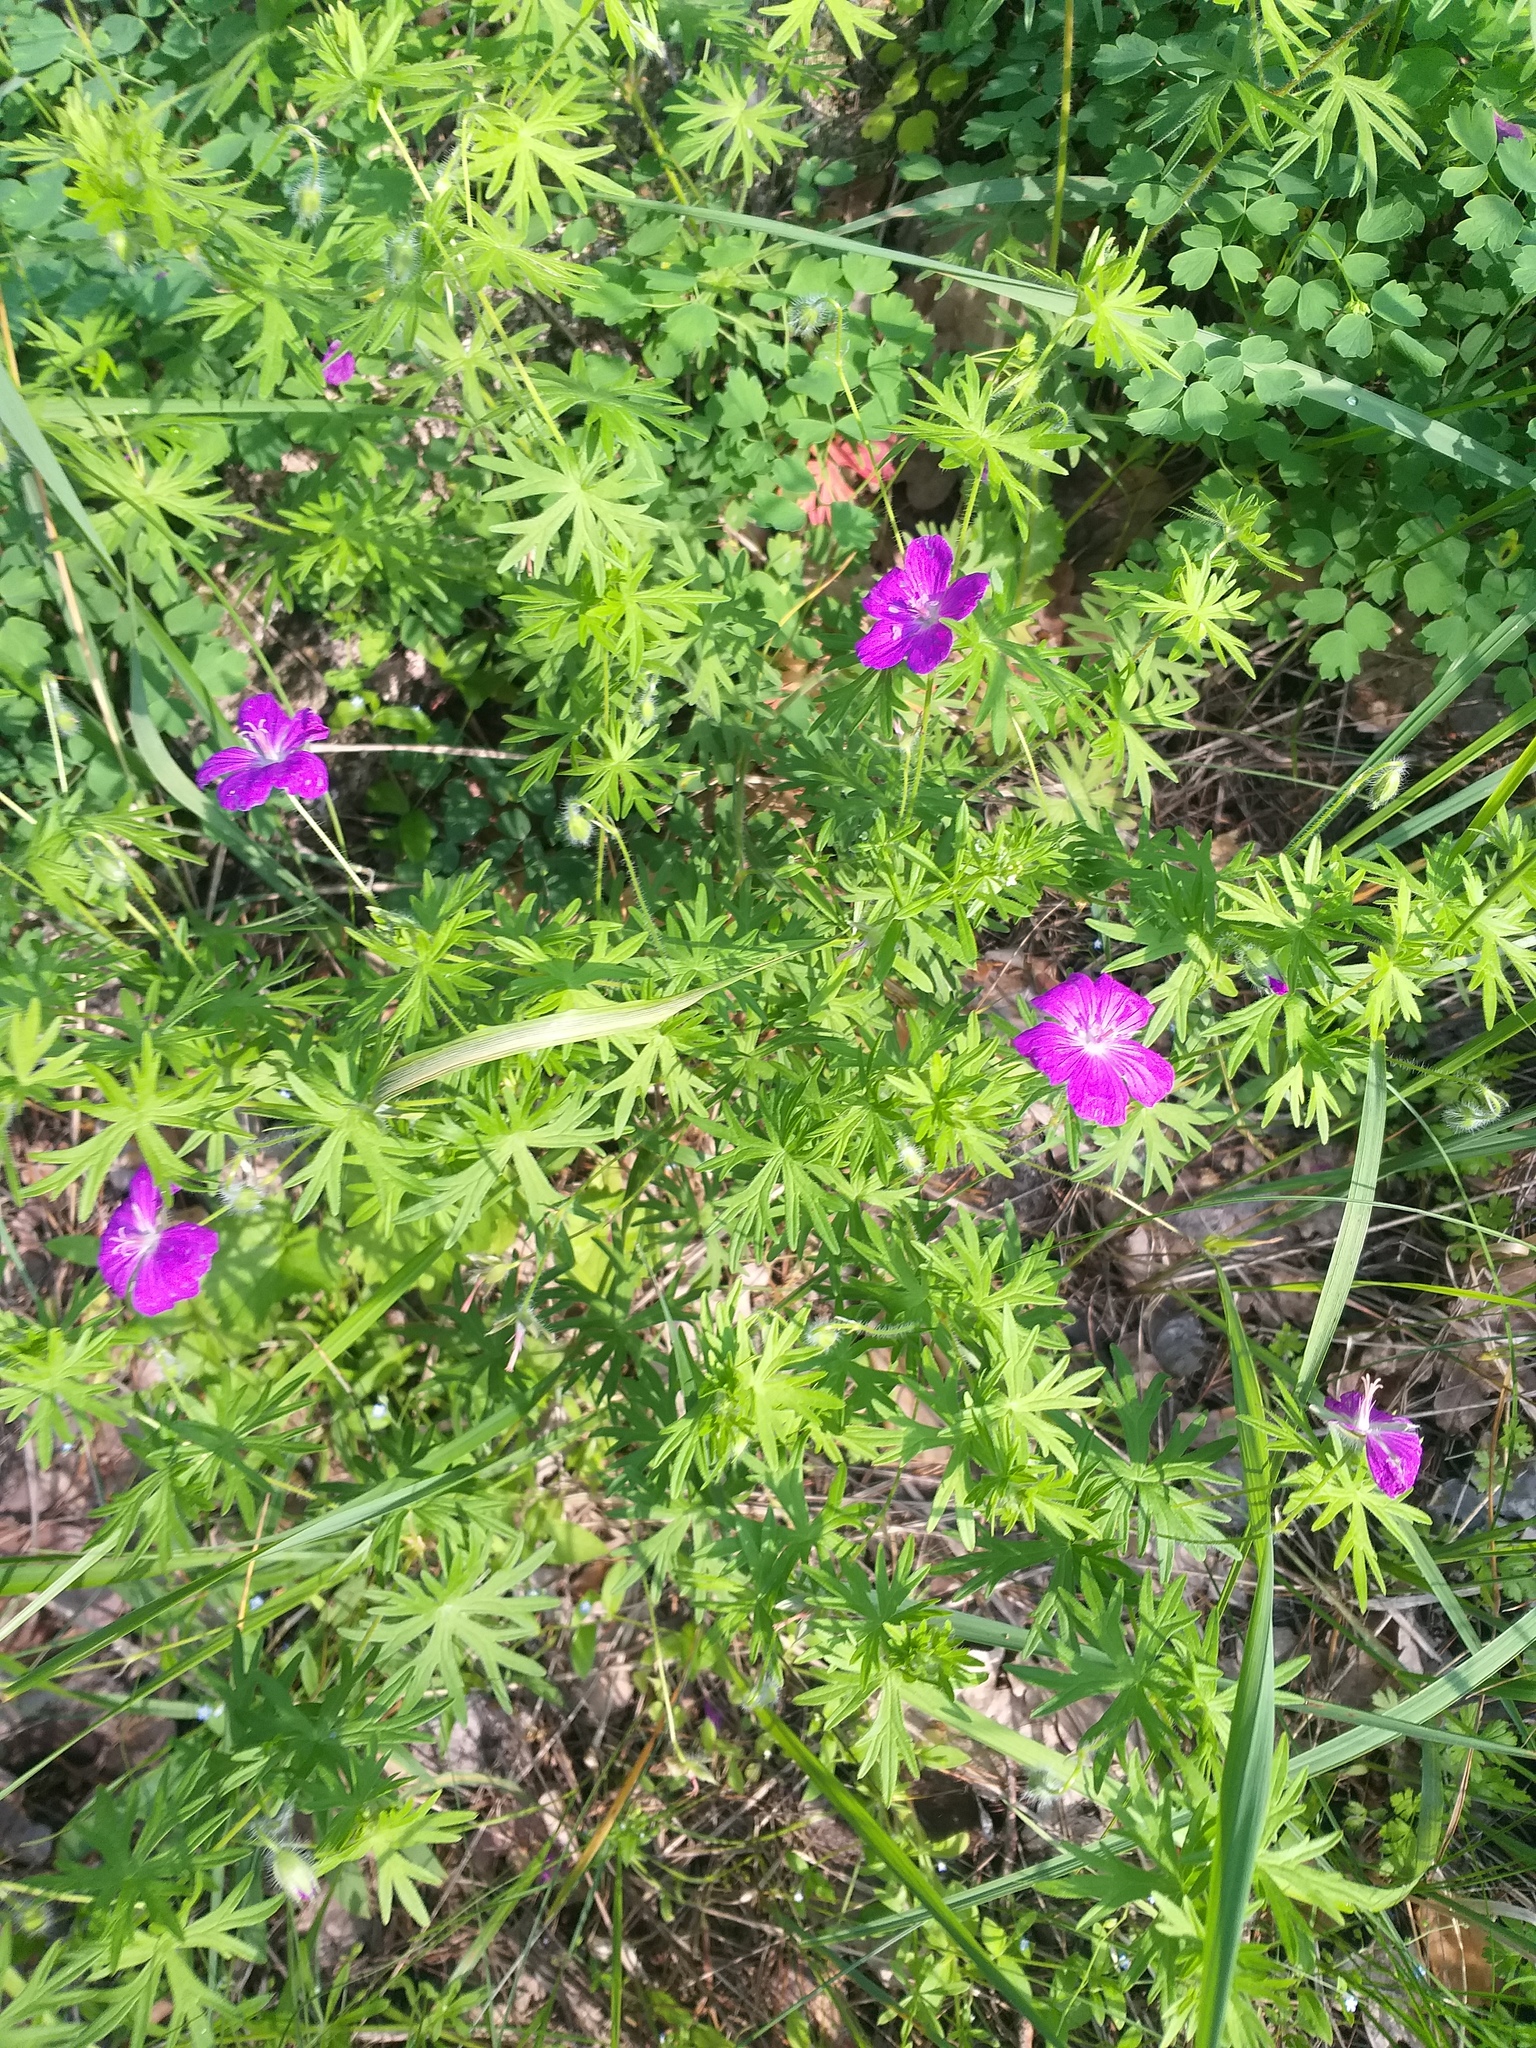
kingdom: Plantae
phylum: Tracheophyta
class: Magnoliopsida
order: Geraniales
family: Geraniaceae
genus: Geranium
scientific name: Geranium sanguineum
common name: Bloody crane's-bill
